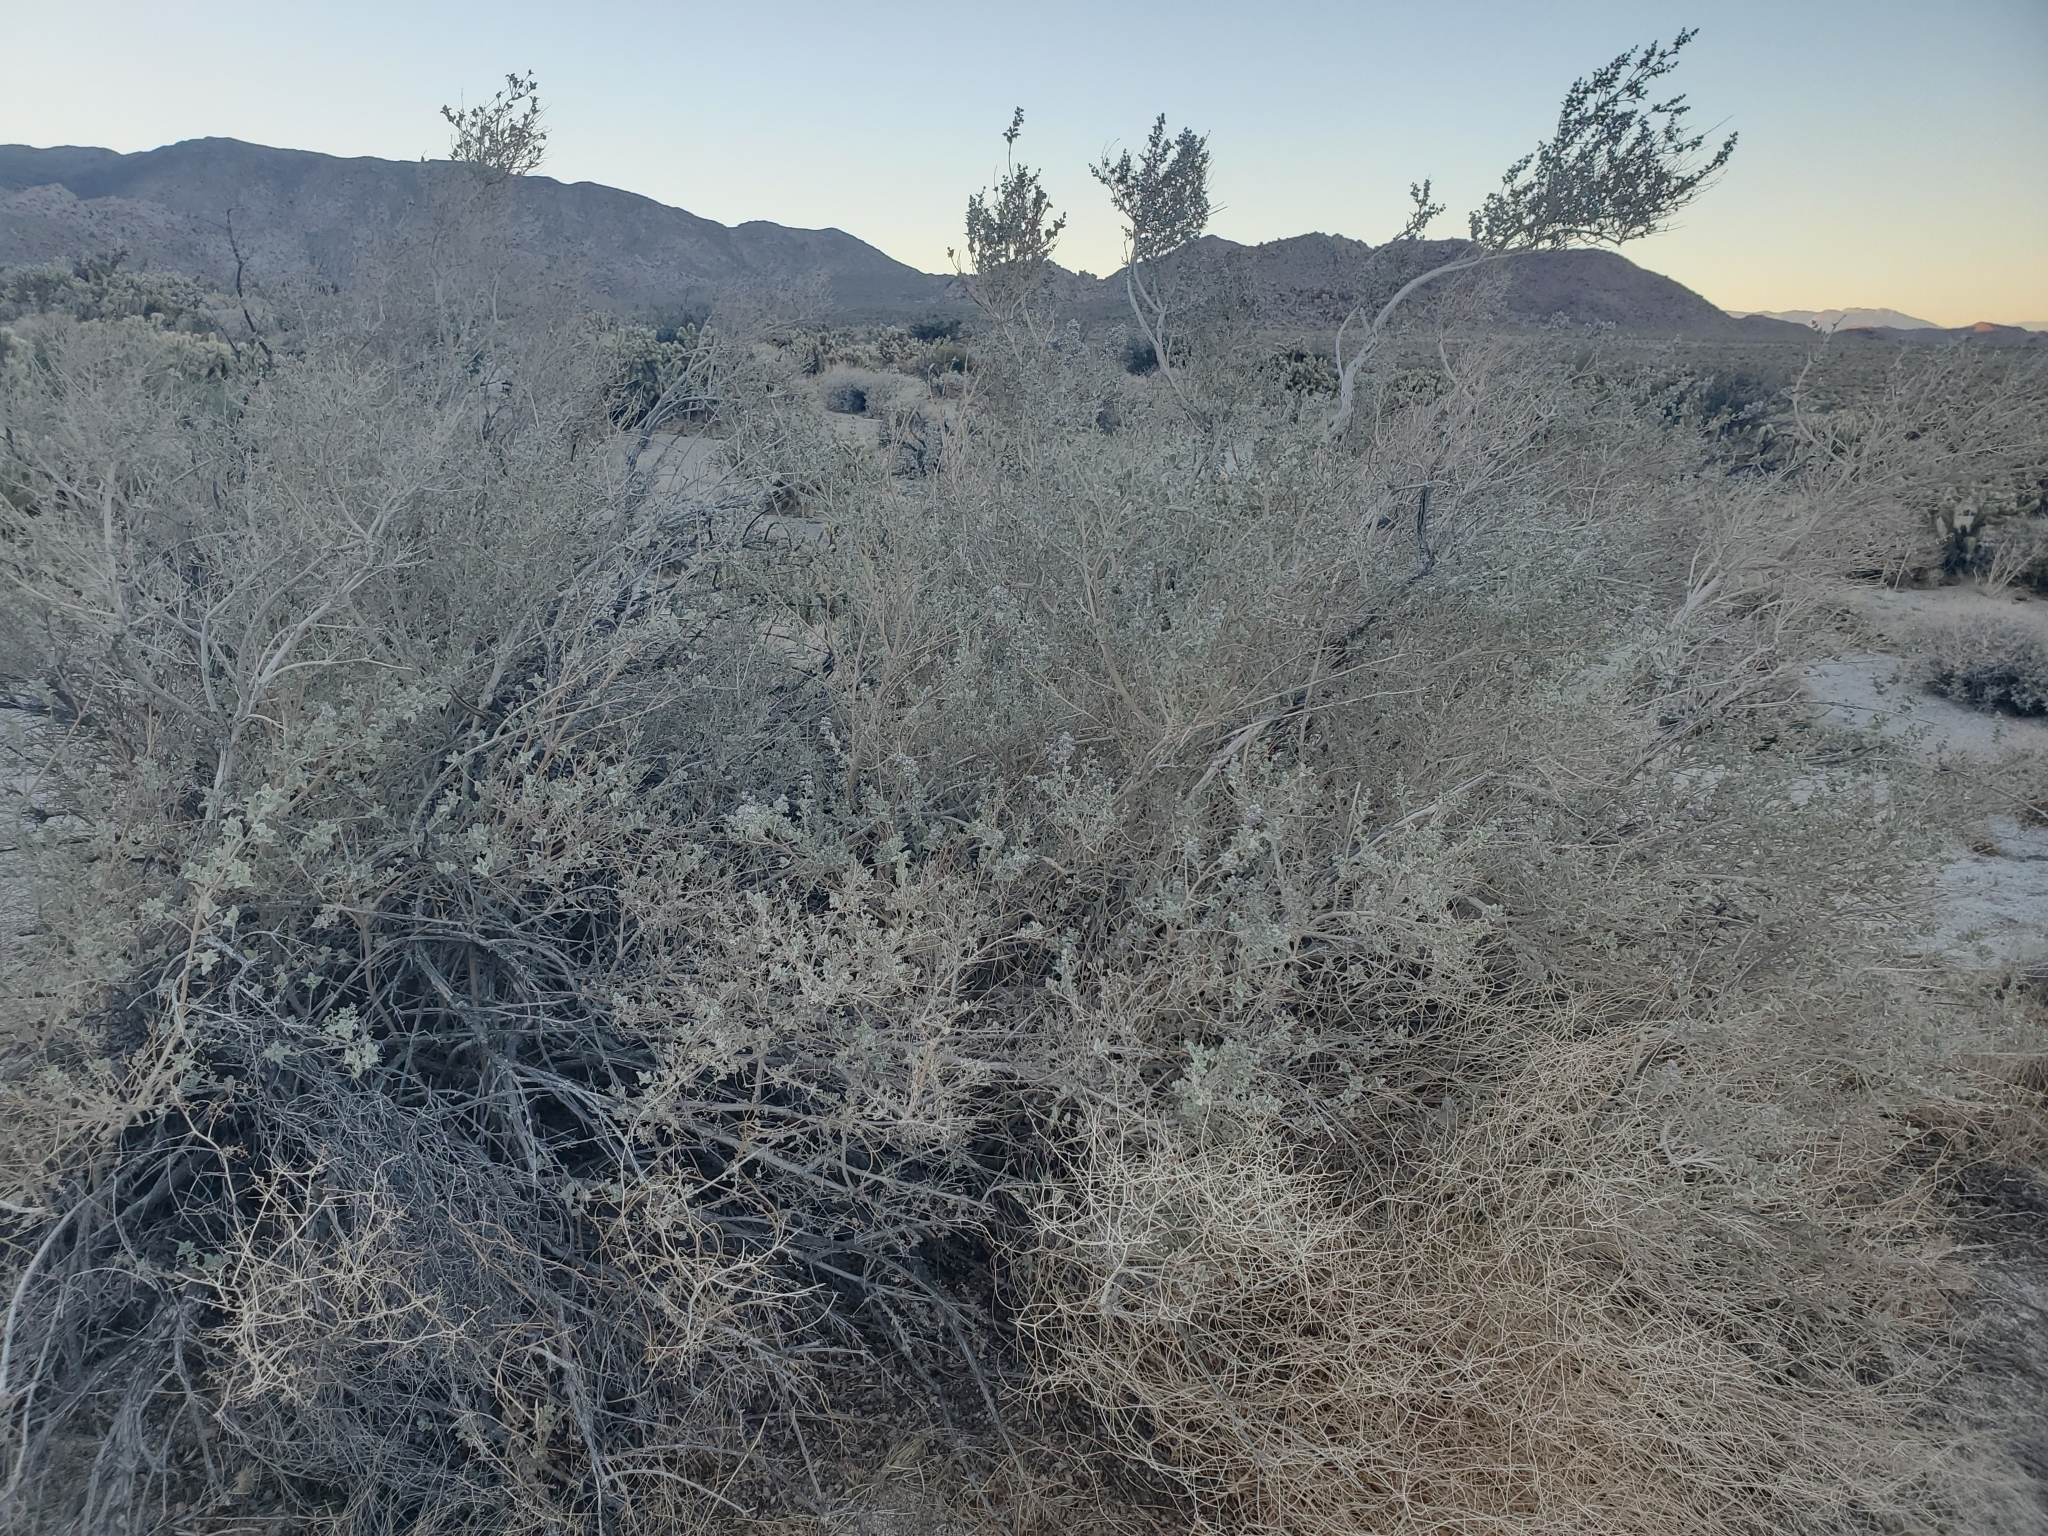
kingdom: Plantae
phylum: Tracheophyta
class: Magnoliopsida
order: Lamiales
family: Lamiaceae
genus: Condea
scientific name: Condea emoryi
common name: Chia
